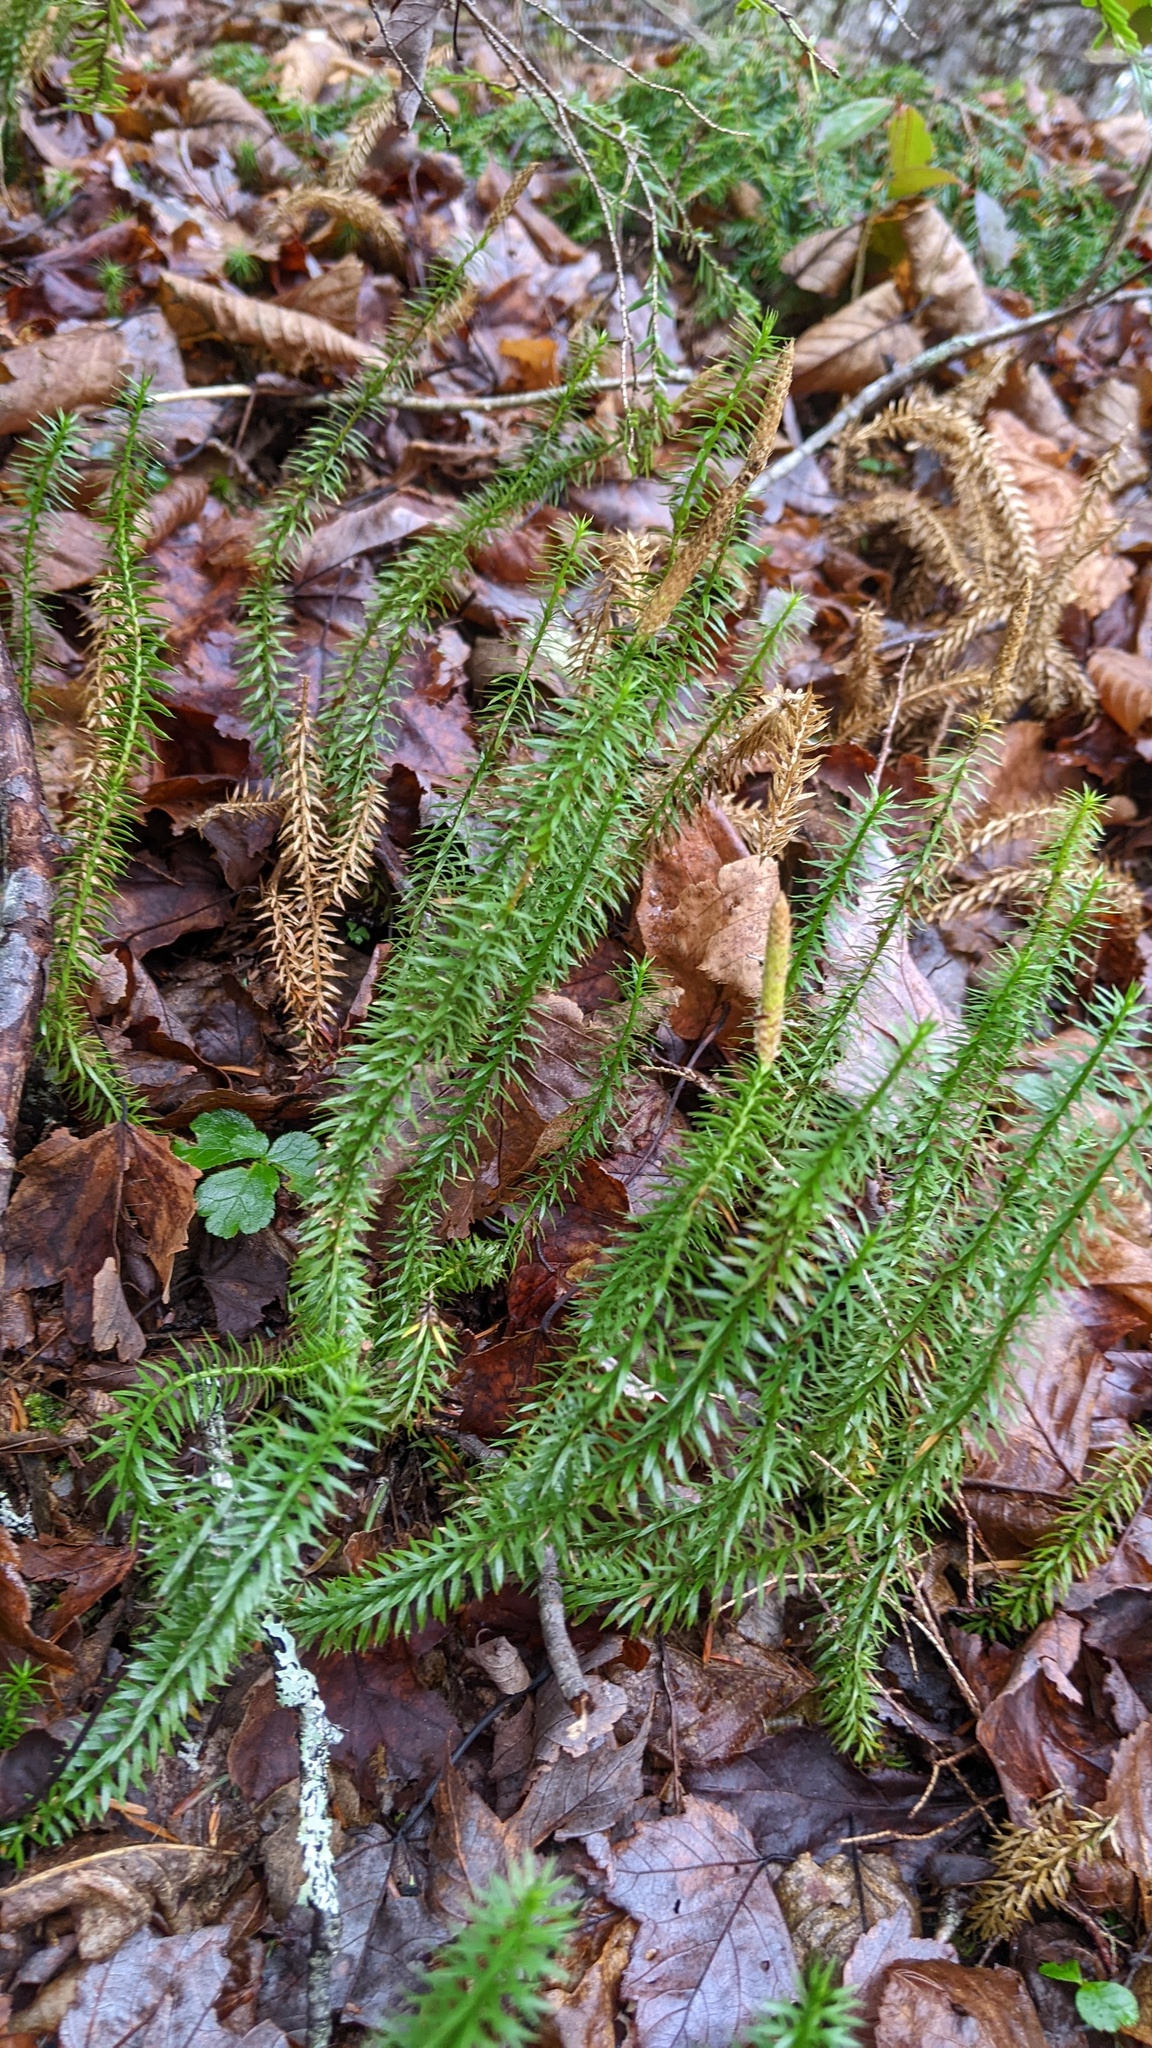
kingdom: Plantae
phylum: Tracheophyta
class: Lycopodiopsida
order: Lycopodiales
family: Lycopodiaceae
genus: Spinulum
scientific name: Spinulum annotinum
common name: Interrupted club-moss
